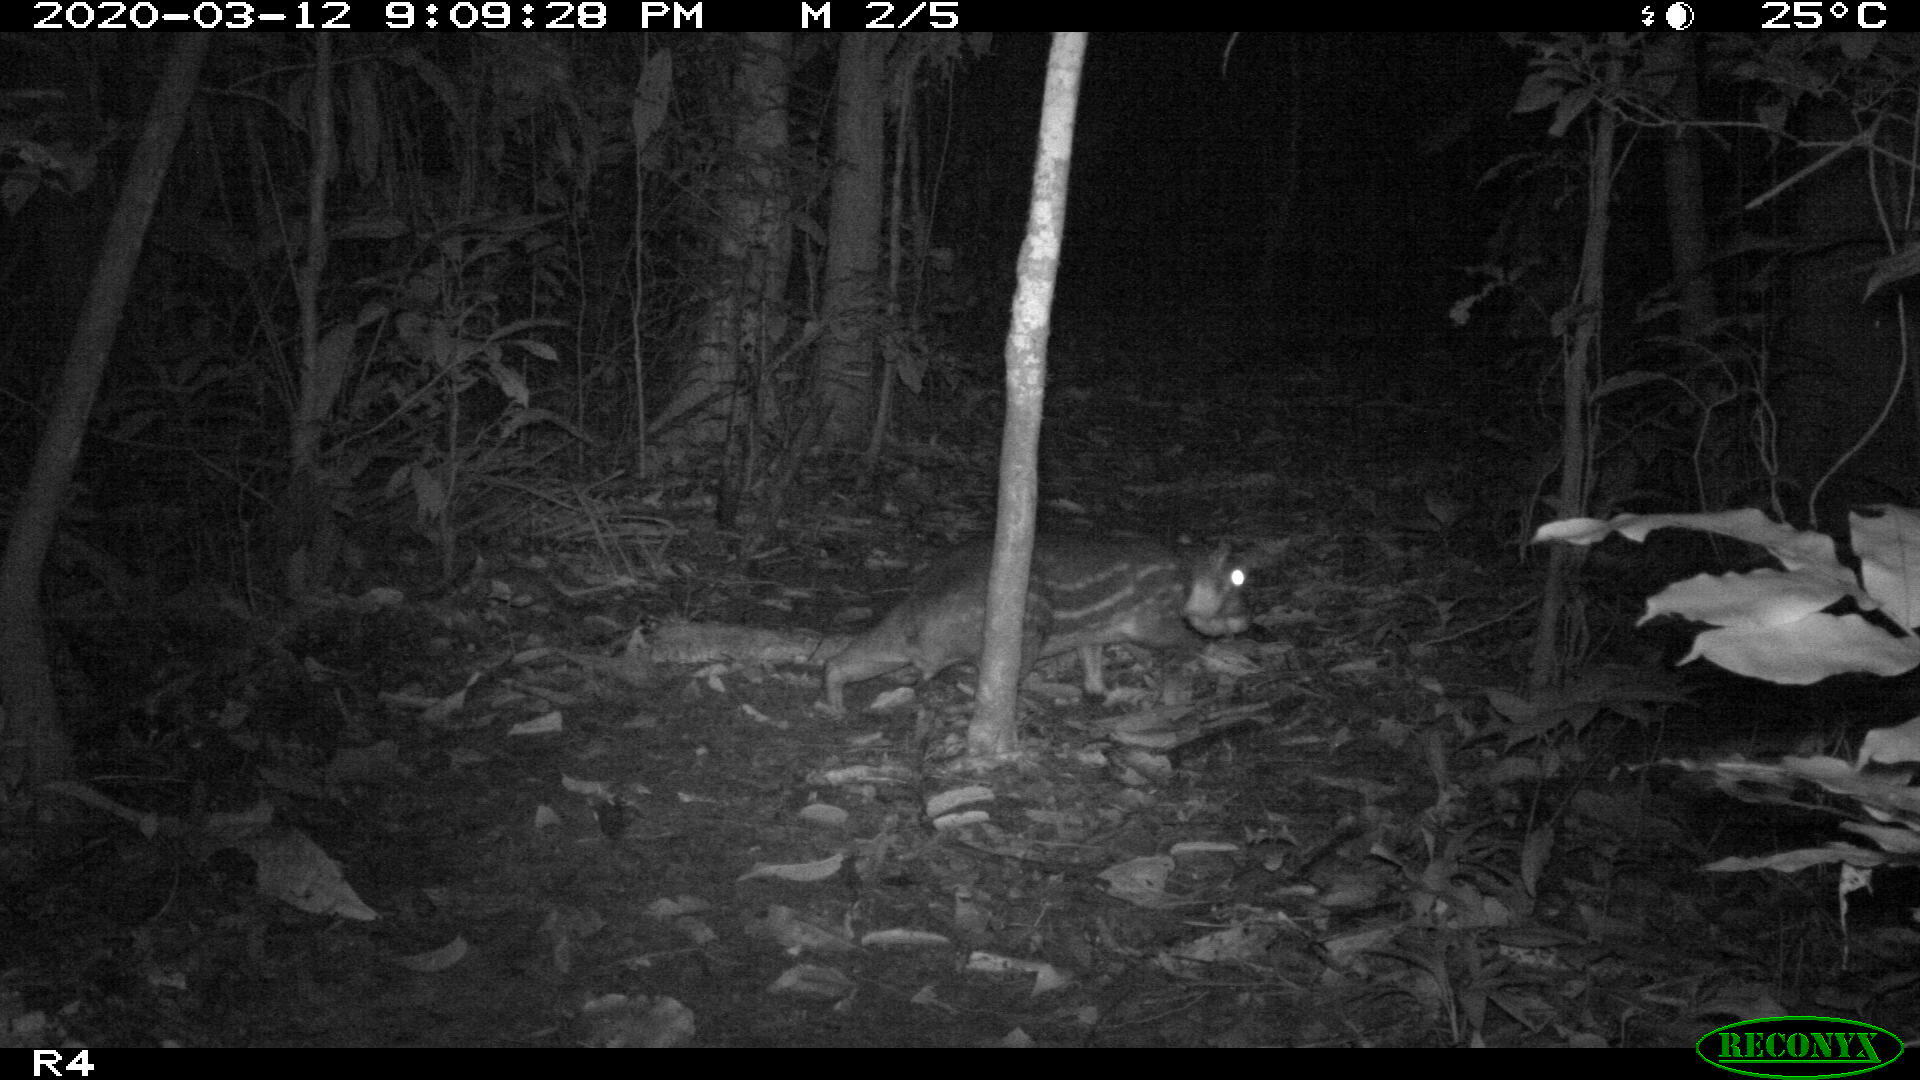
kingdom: Animalia
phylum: Chordata
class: Mammalia
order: Rodentia
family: Cuniculidae
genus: Cuniculus
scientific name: Cuniculus paca
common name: Lowland paca
